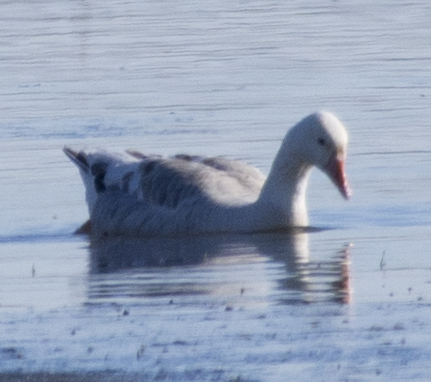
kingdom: Animalia
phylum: Chordata
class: Aves
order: Anseriformes
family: Anatidae
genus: Anser
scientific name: Anser caerulescens
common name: Snow goose
